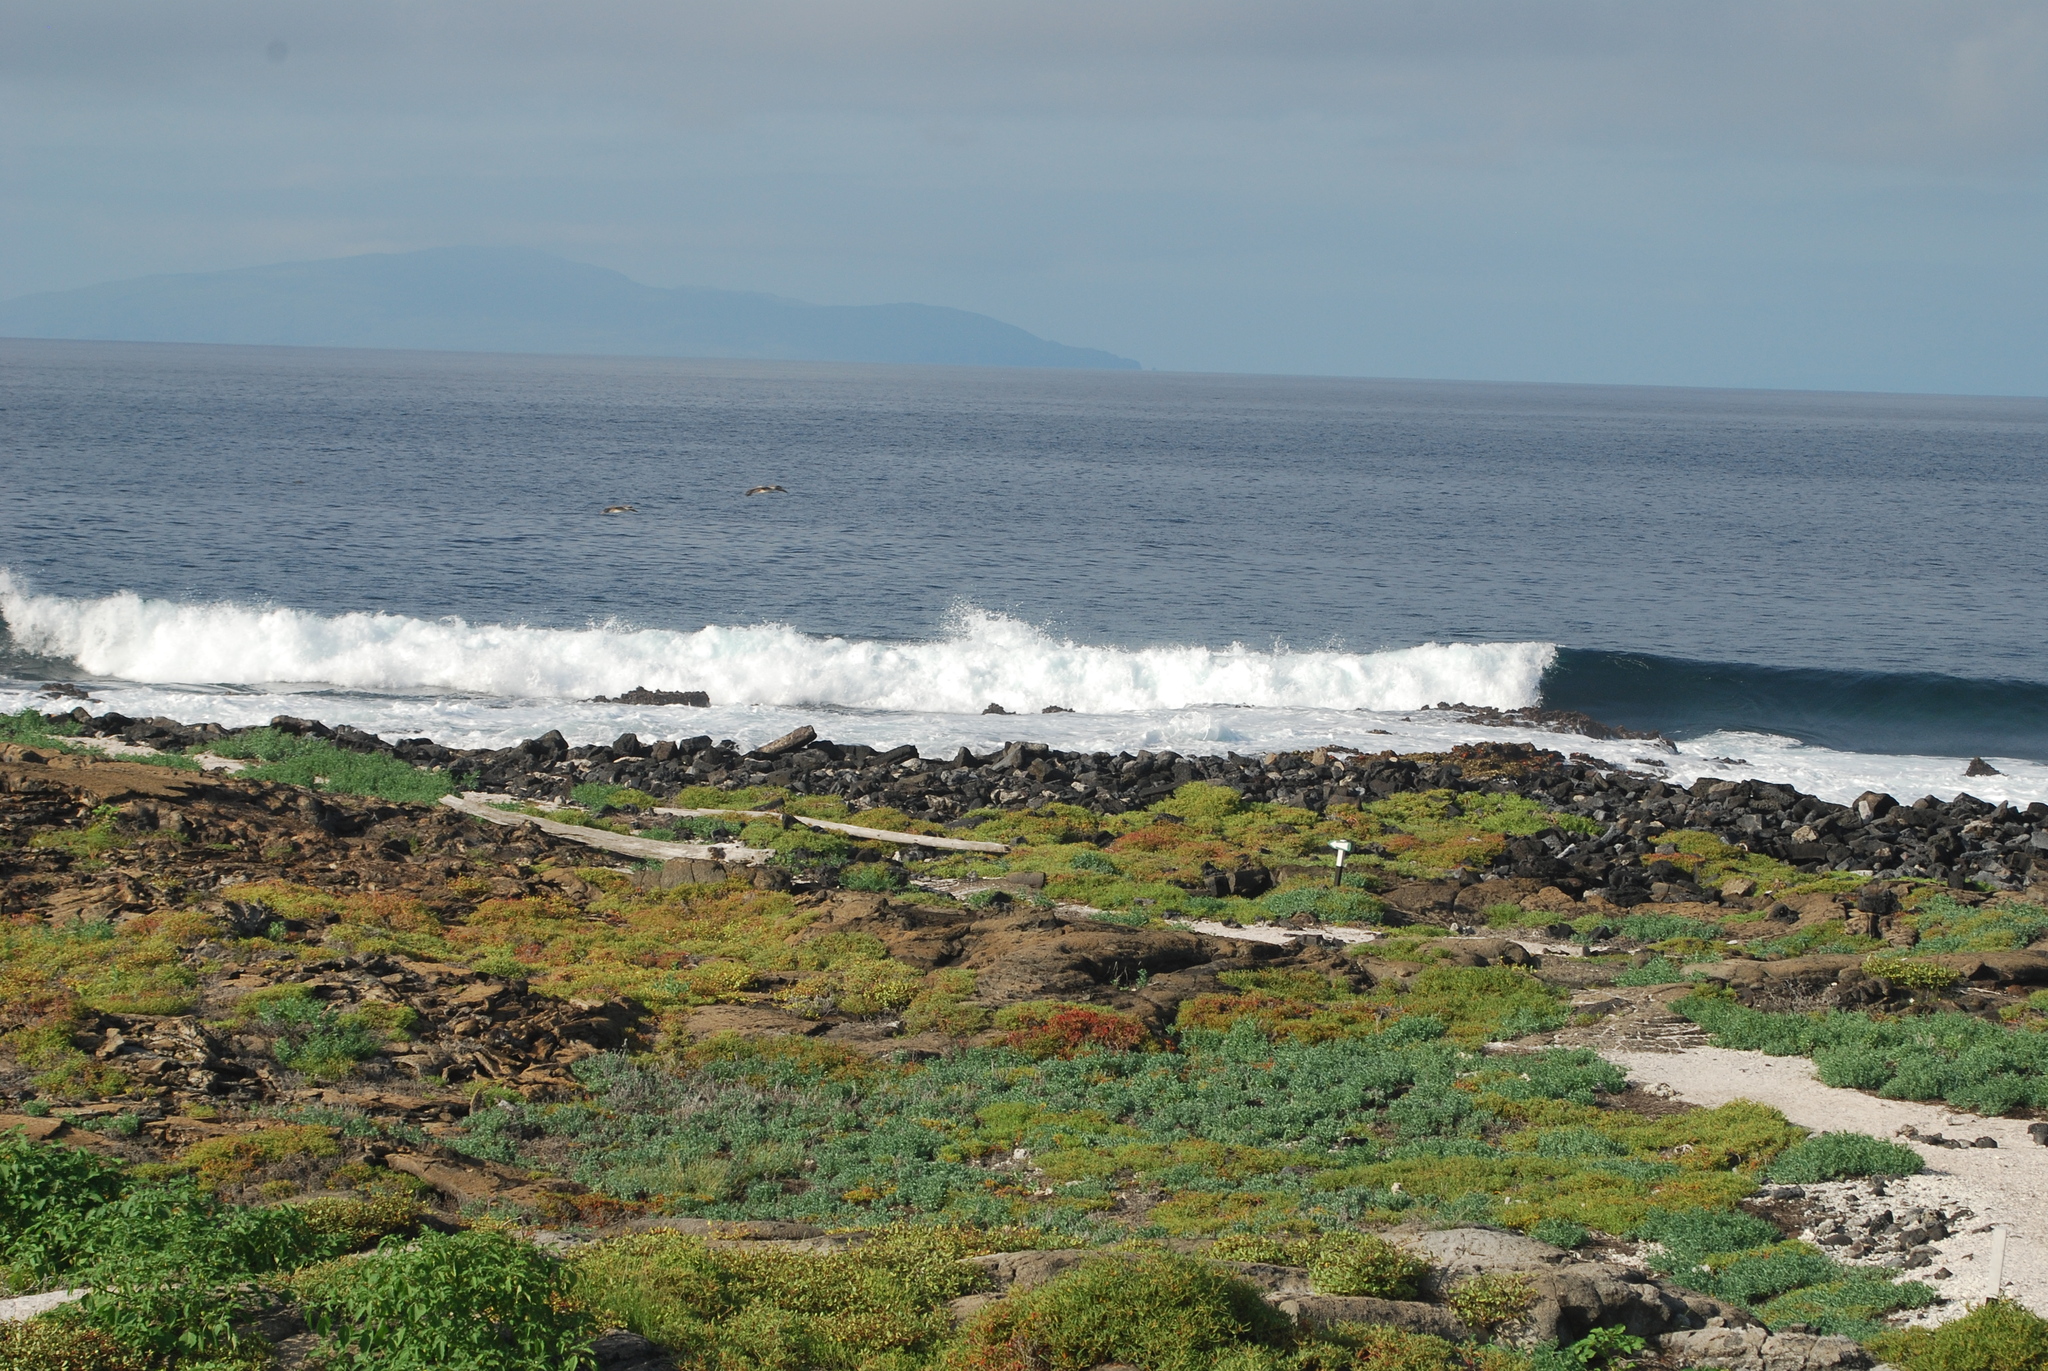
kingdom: Animalia
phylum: Chordata
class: Aves
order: Pelecaniformes
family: Pelecanidae
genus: Pelecanus
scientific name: Pelecanus occidentalis
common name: Brown pelican
